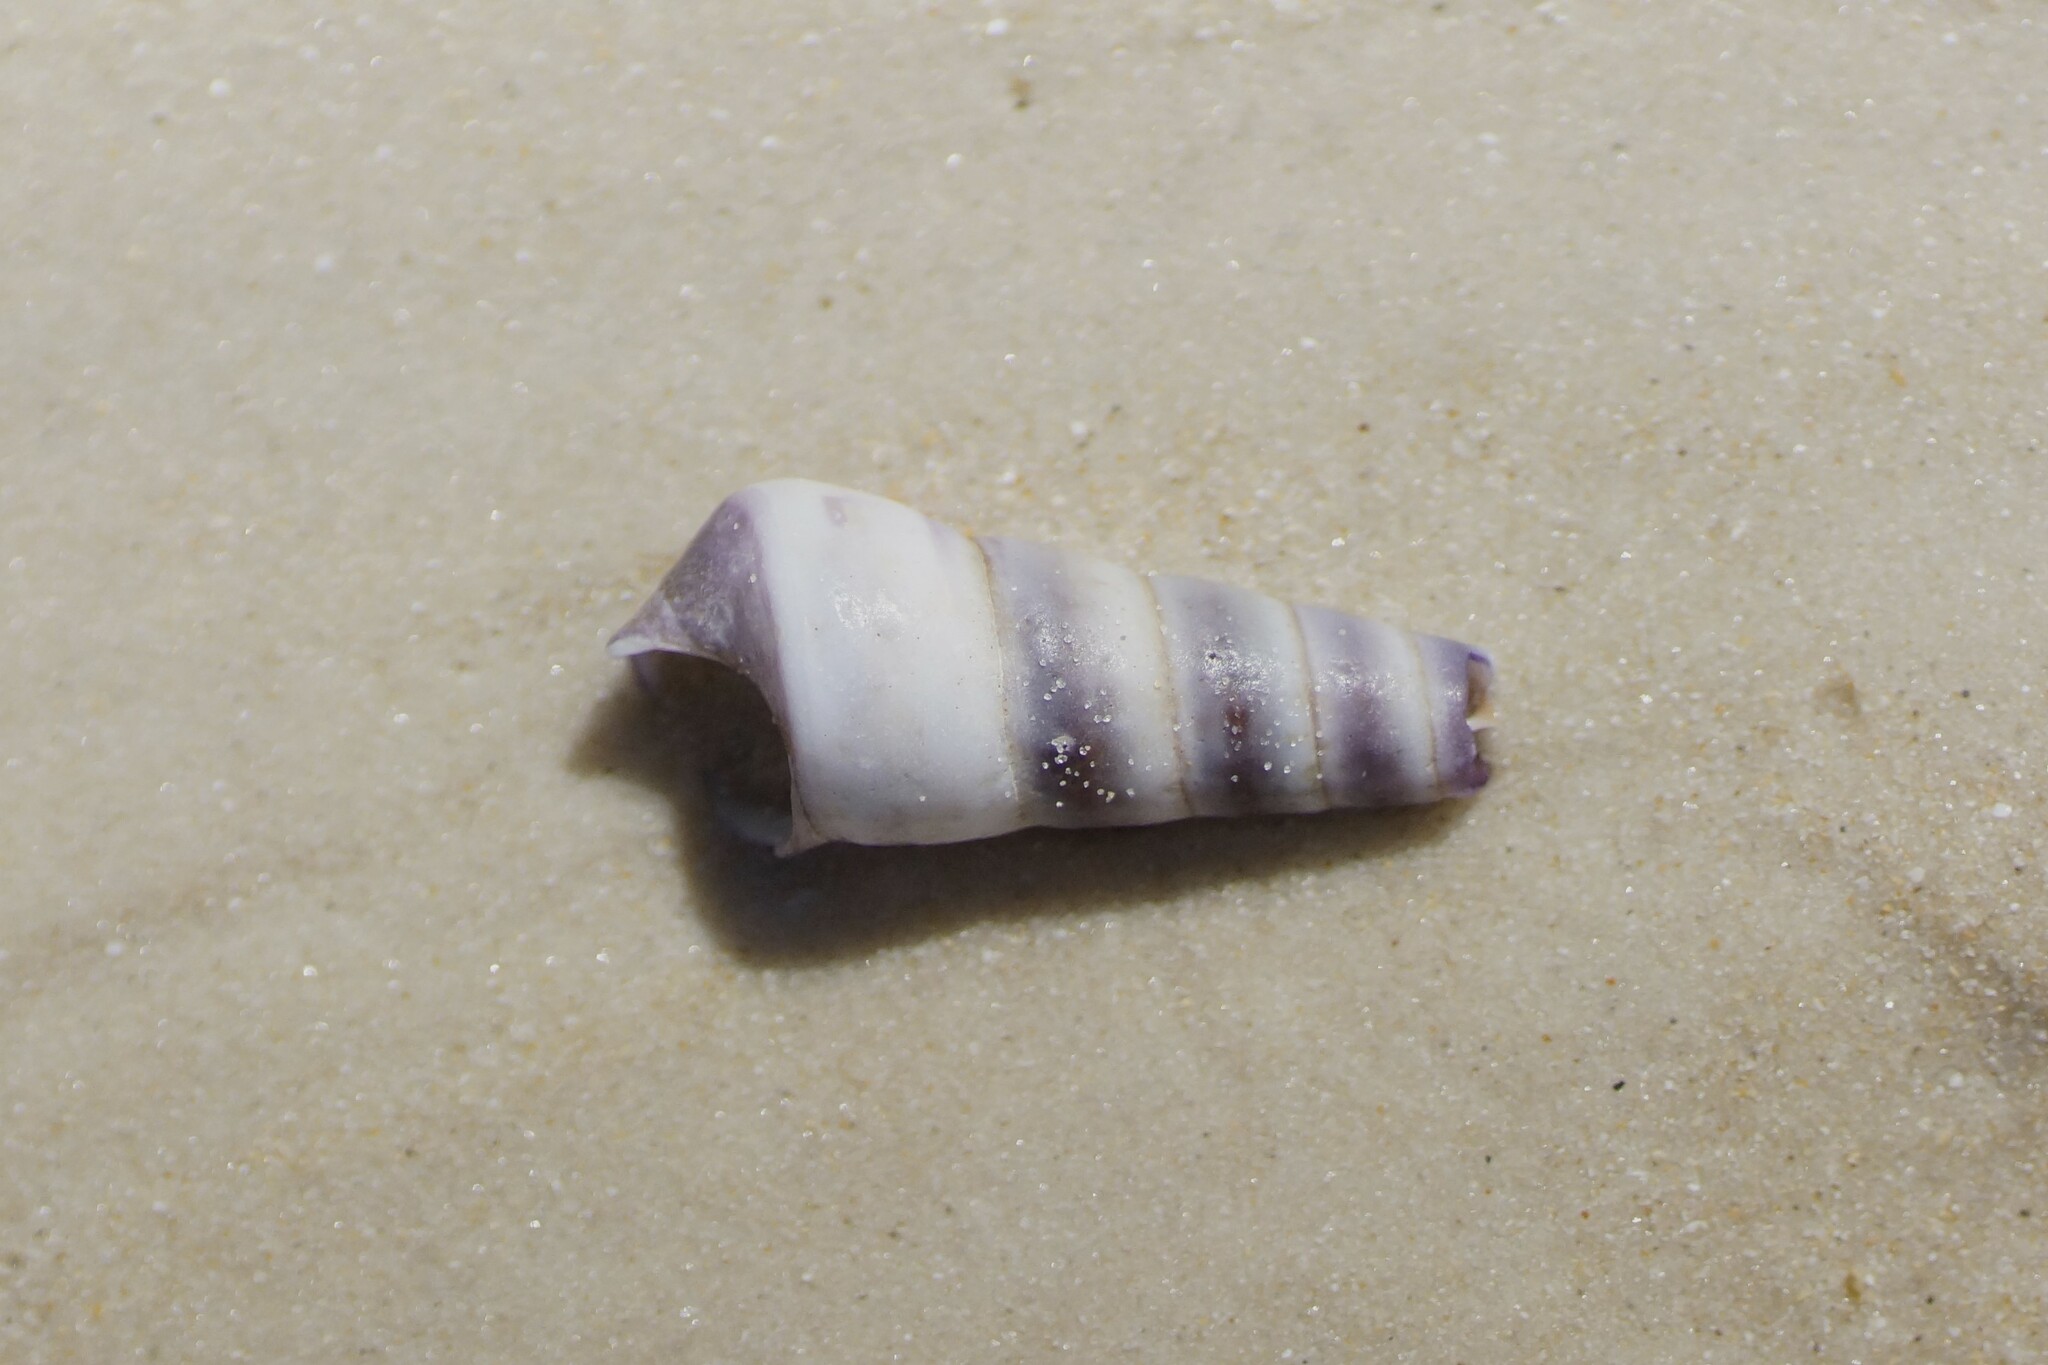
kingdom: Animalia
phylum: Mollusca
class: Gastropoda
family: Turritellidae
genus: Maoricolpus
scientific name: Maoricolpus roseus
